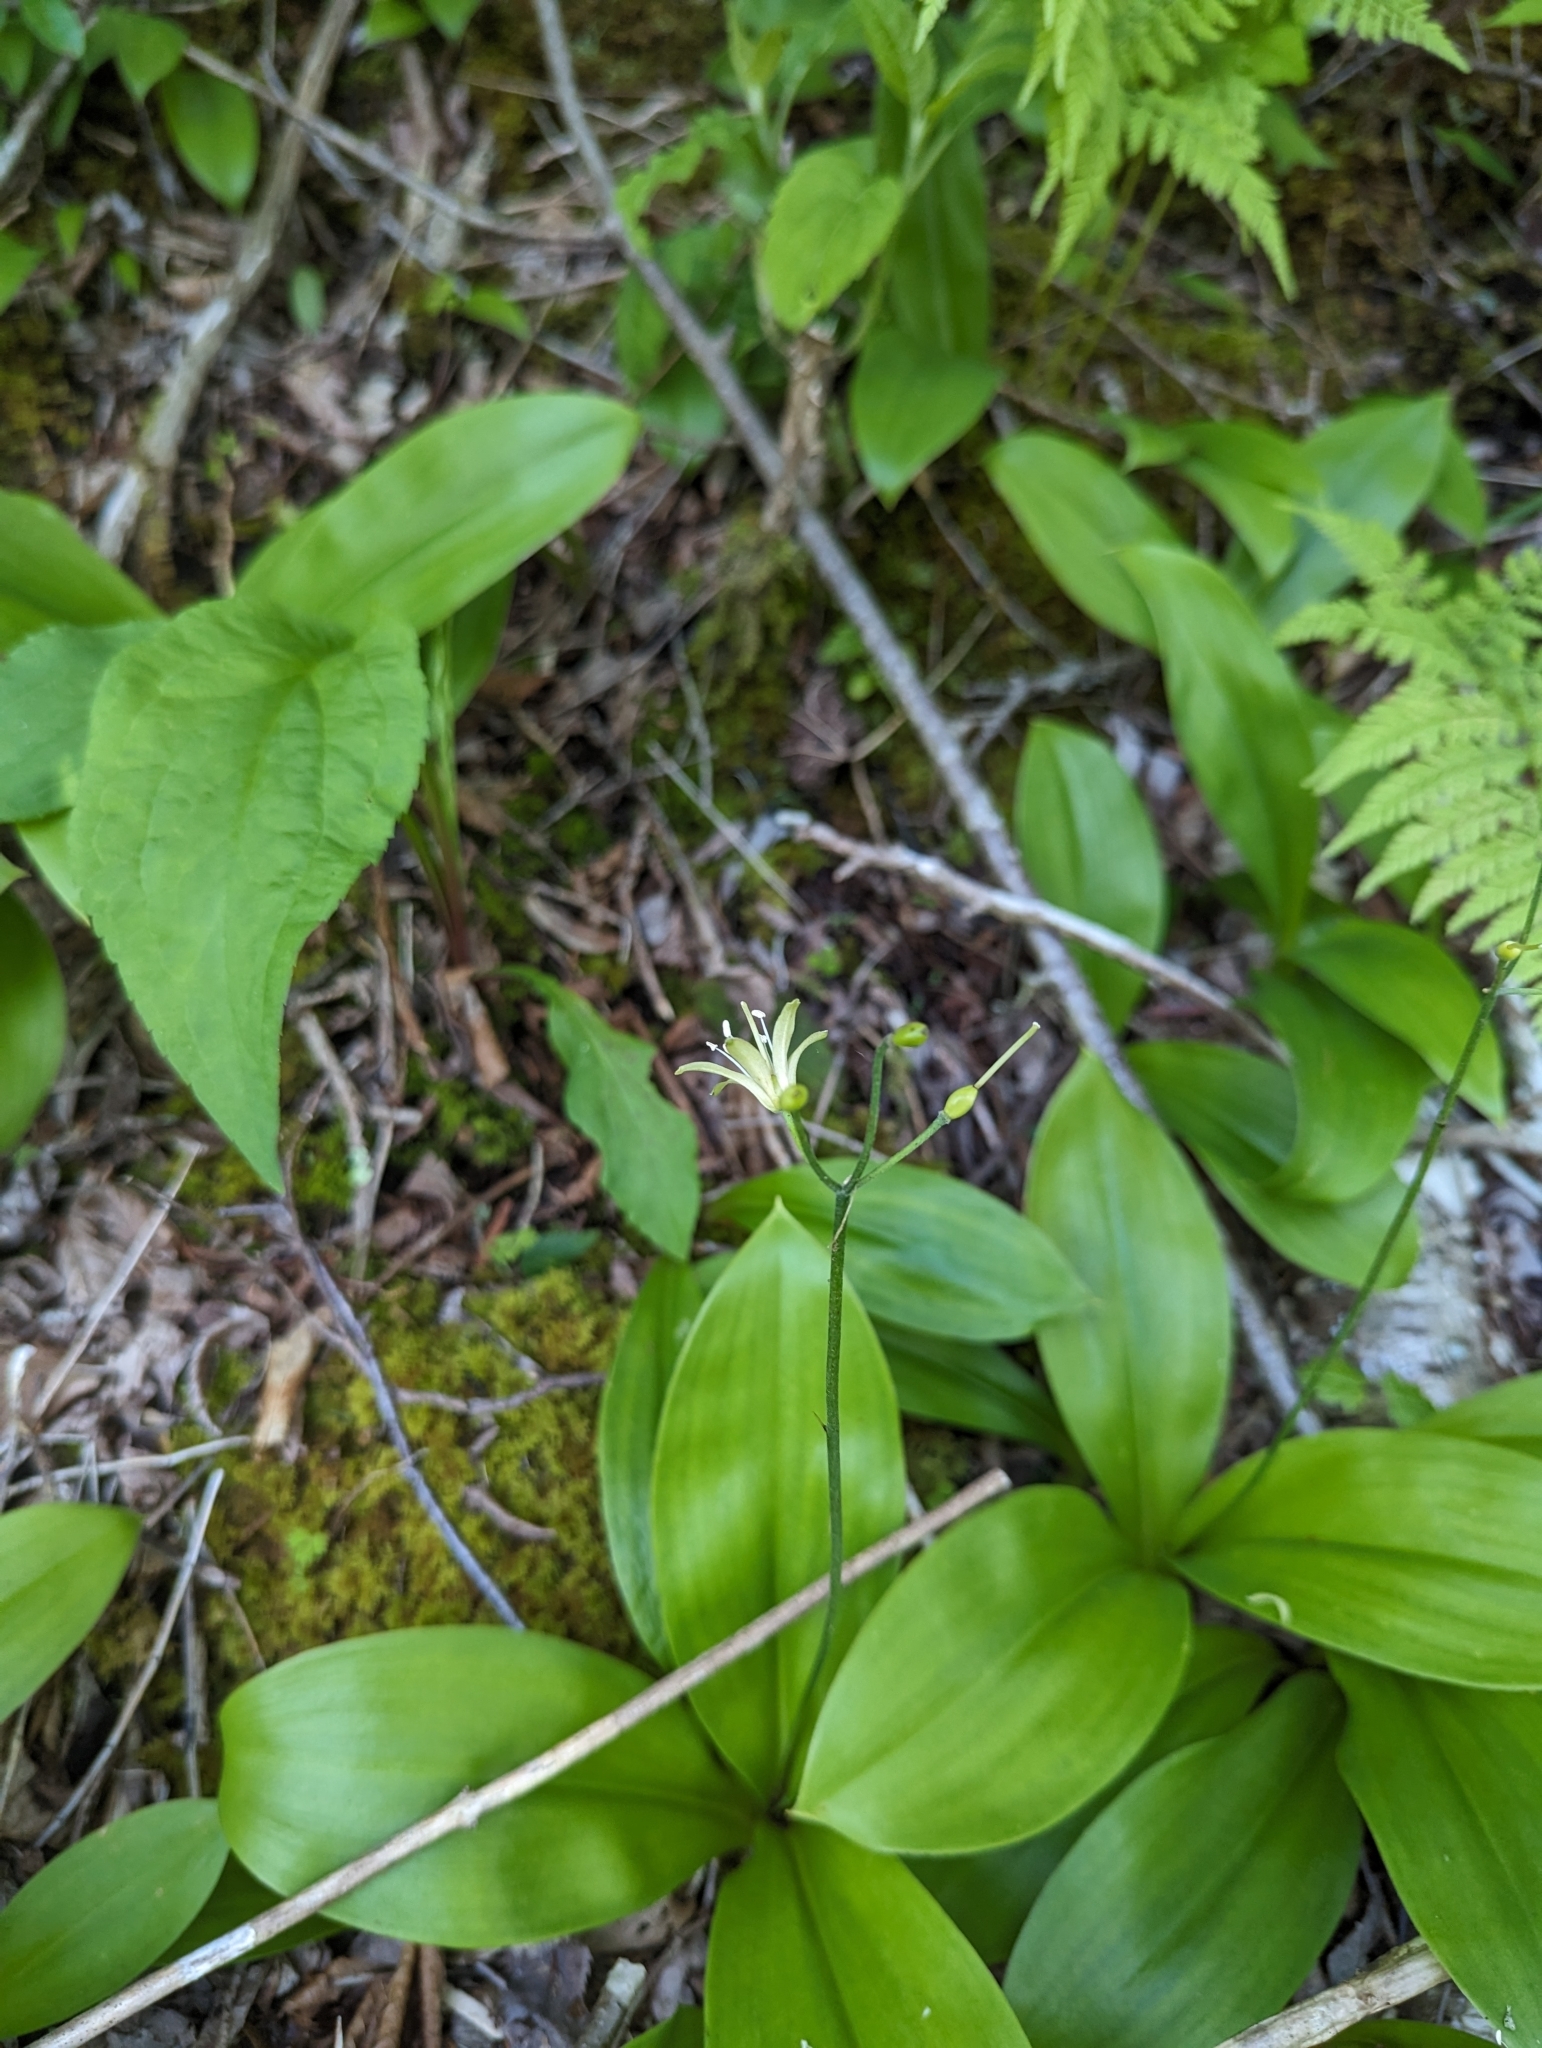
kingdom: Plantae
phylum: Tracheophyta
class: Liliopsida
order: Liliales
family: Liliaceae
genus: Clintonia
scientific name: Clintonia borealis
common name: Yellow clintonia
